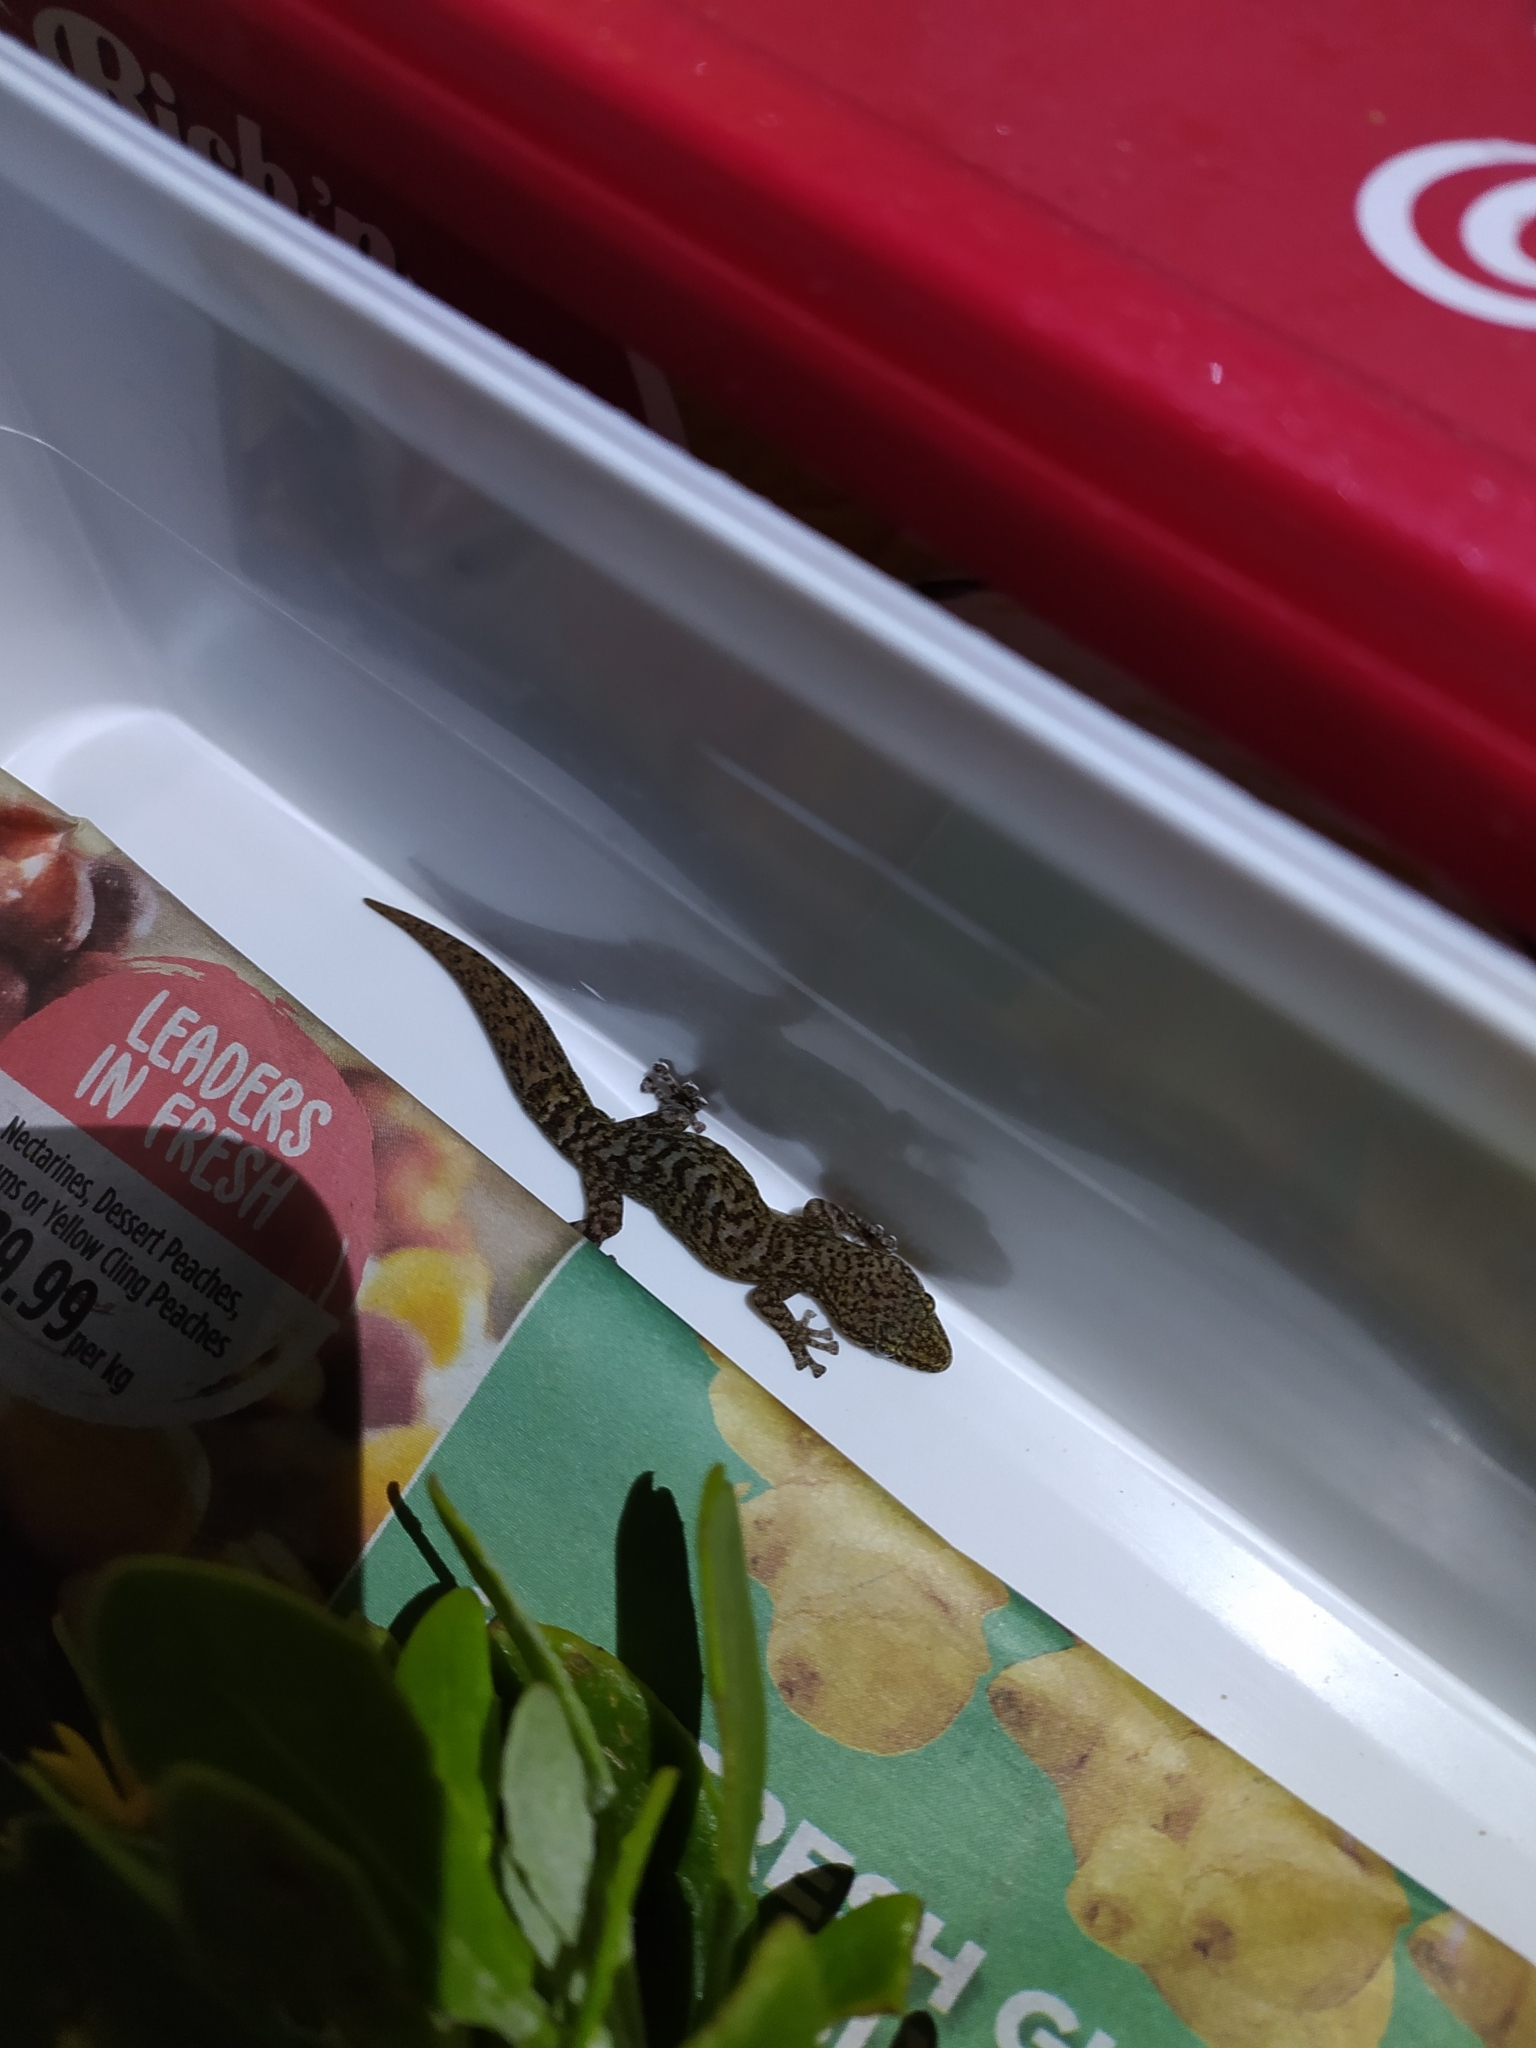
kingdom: Animalia
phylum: Chordata
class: Squamata
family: Gekkonidae
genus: Afrogecko
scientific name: Afrogecko porphyreus
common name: Marbled leaf-toed gecko
